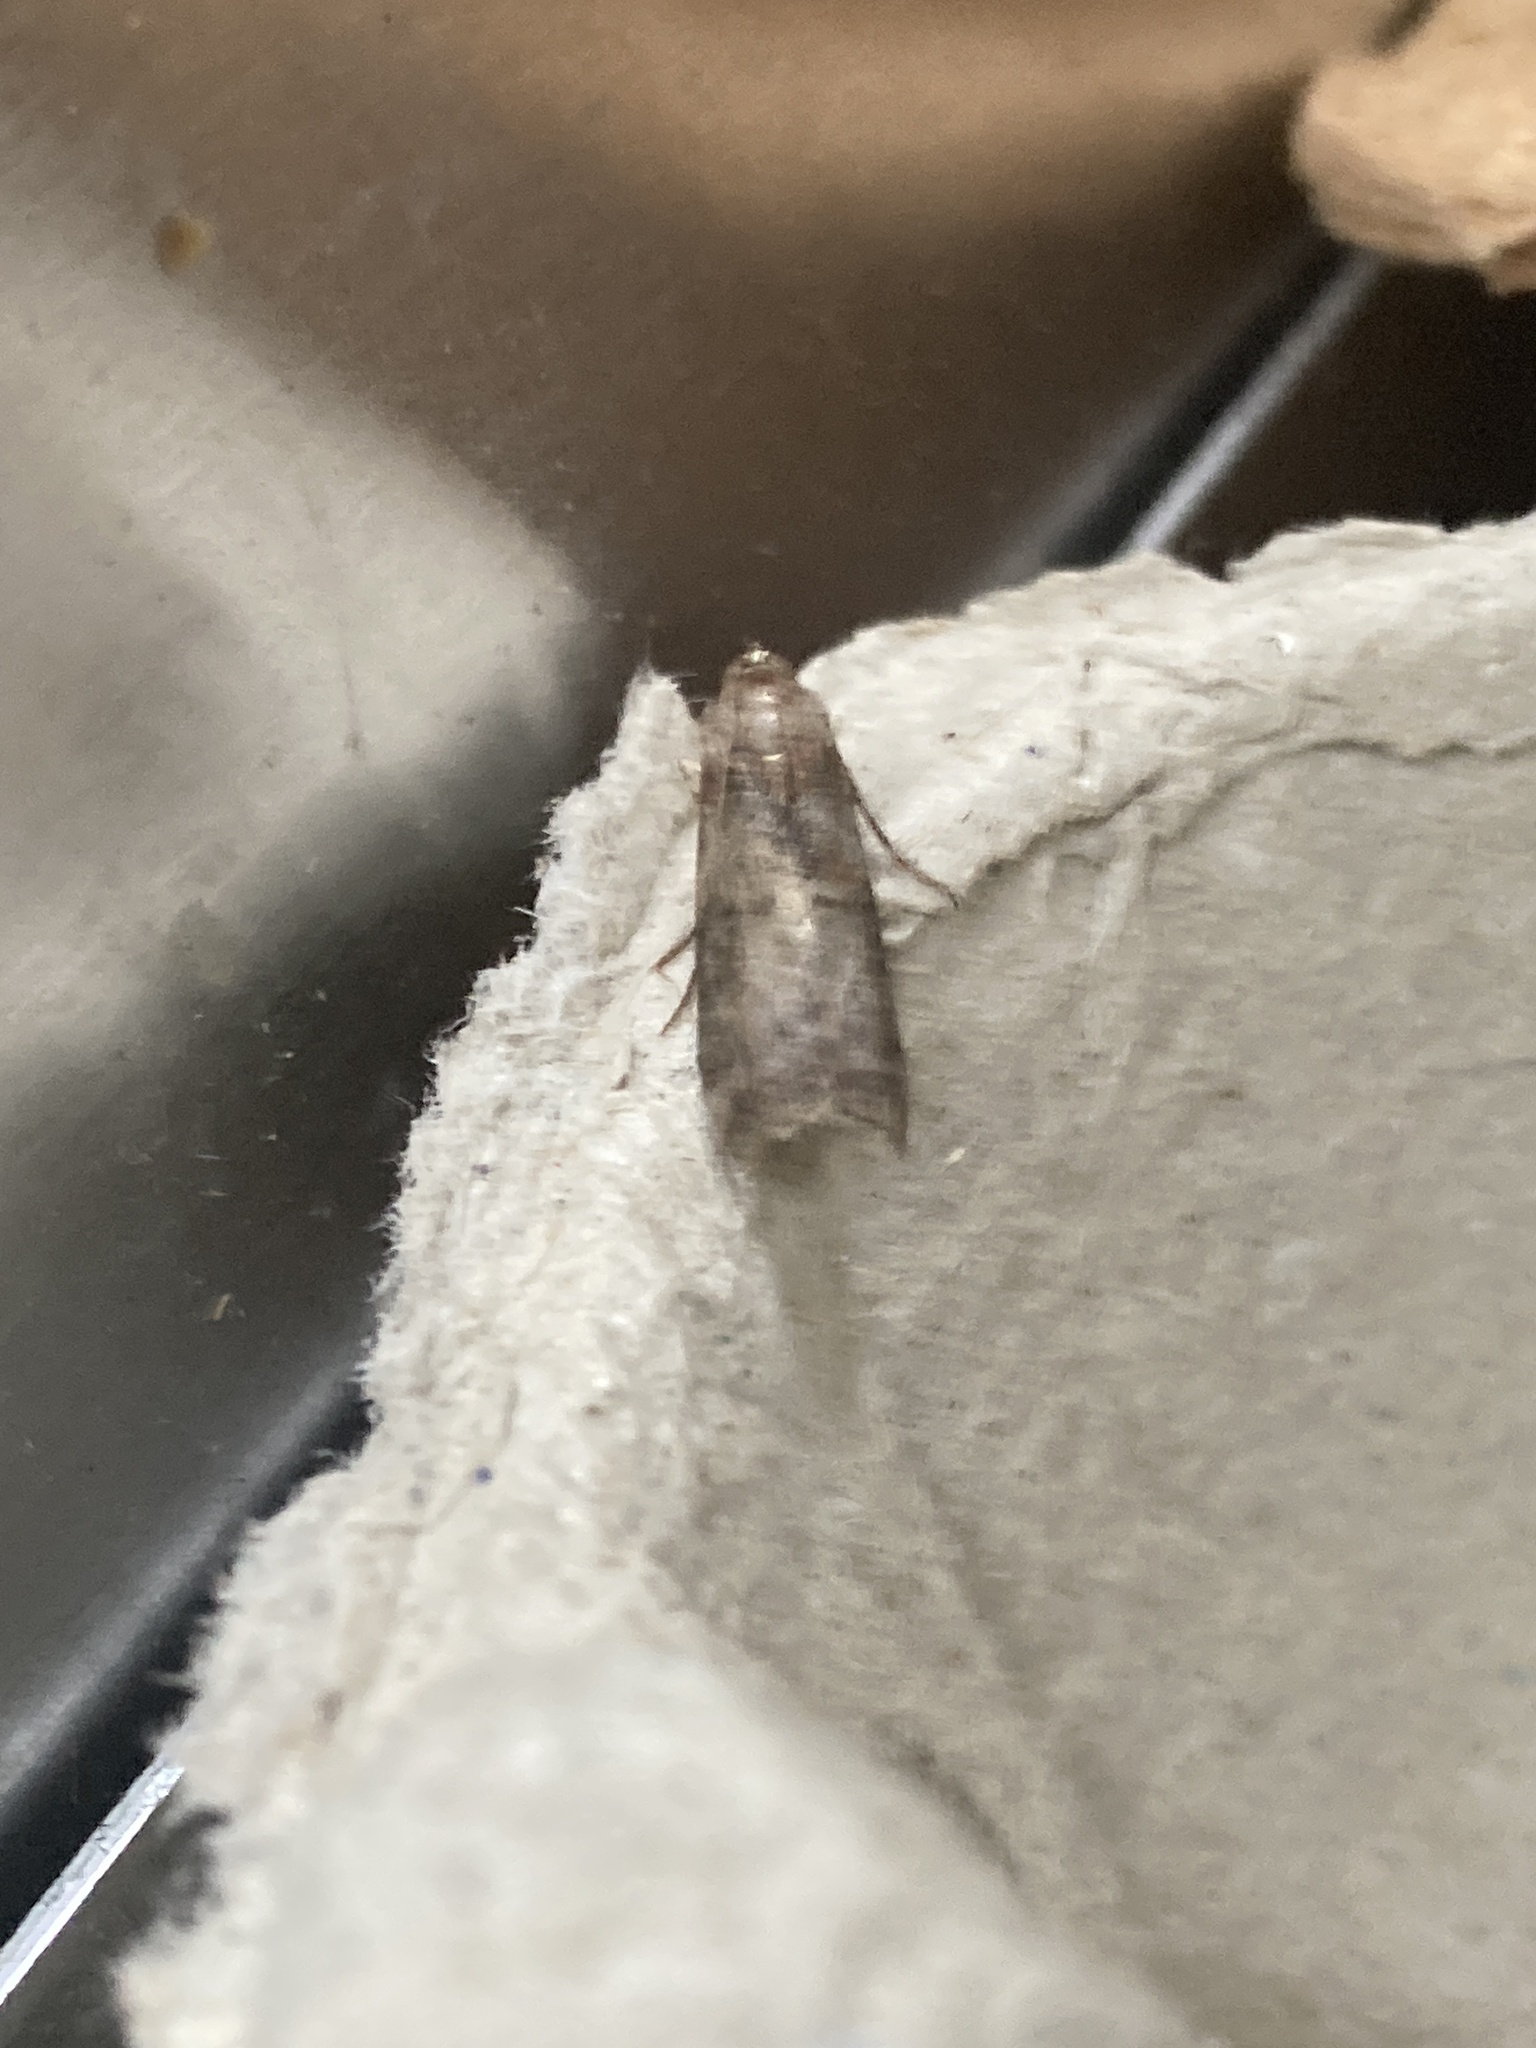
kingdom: Animalia
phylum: Arthropoda
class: Insecta
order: Lepidoptera
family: Pyralidae
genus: Phycita
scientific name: Phycita roborella
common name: Dotted oak knot-horn
